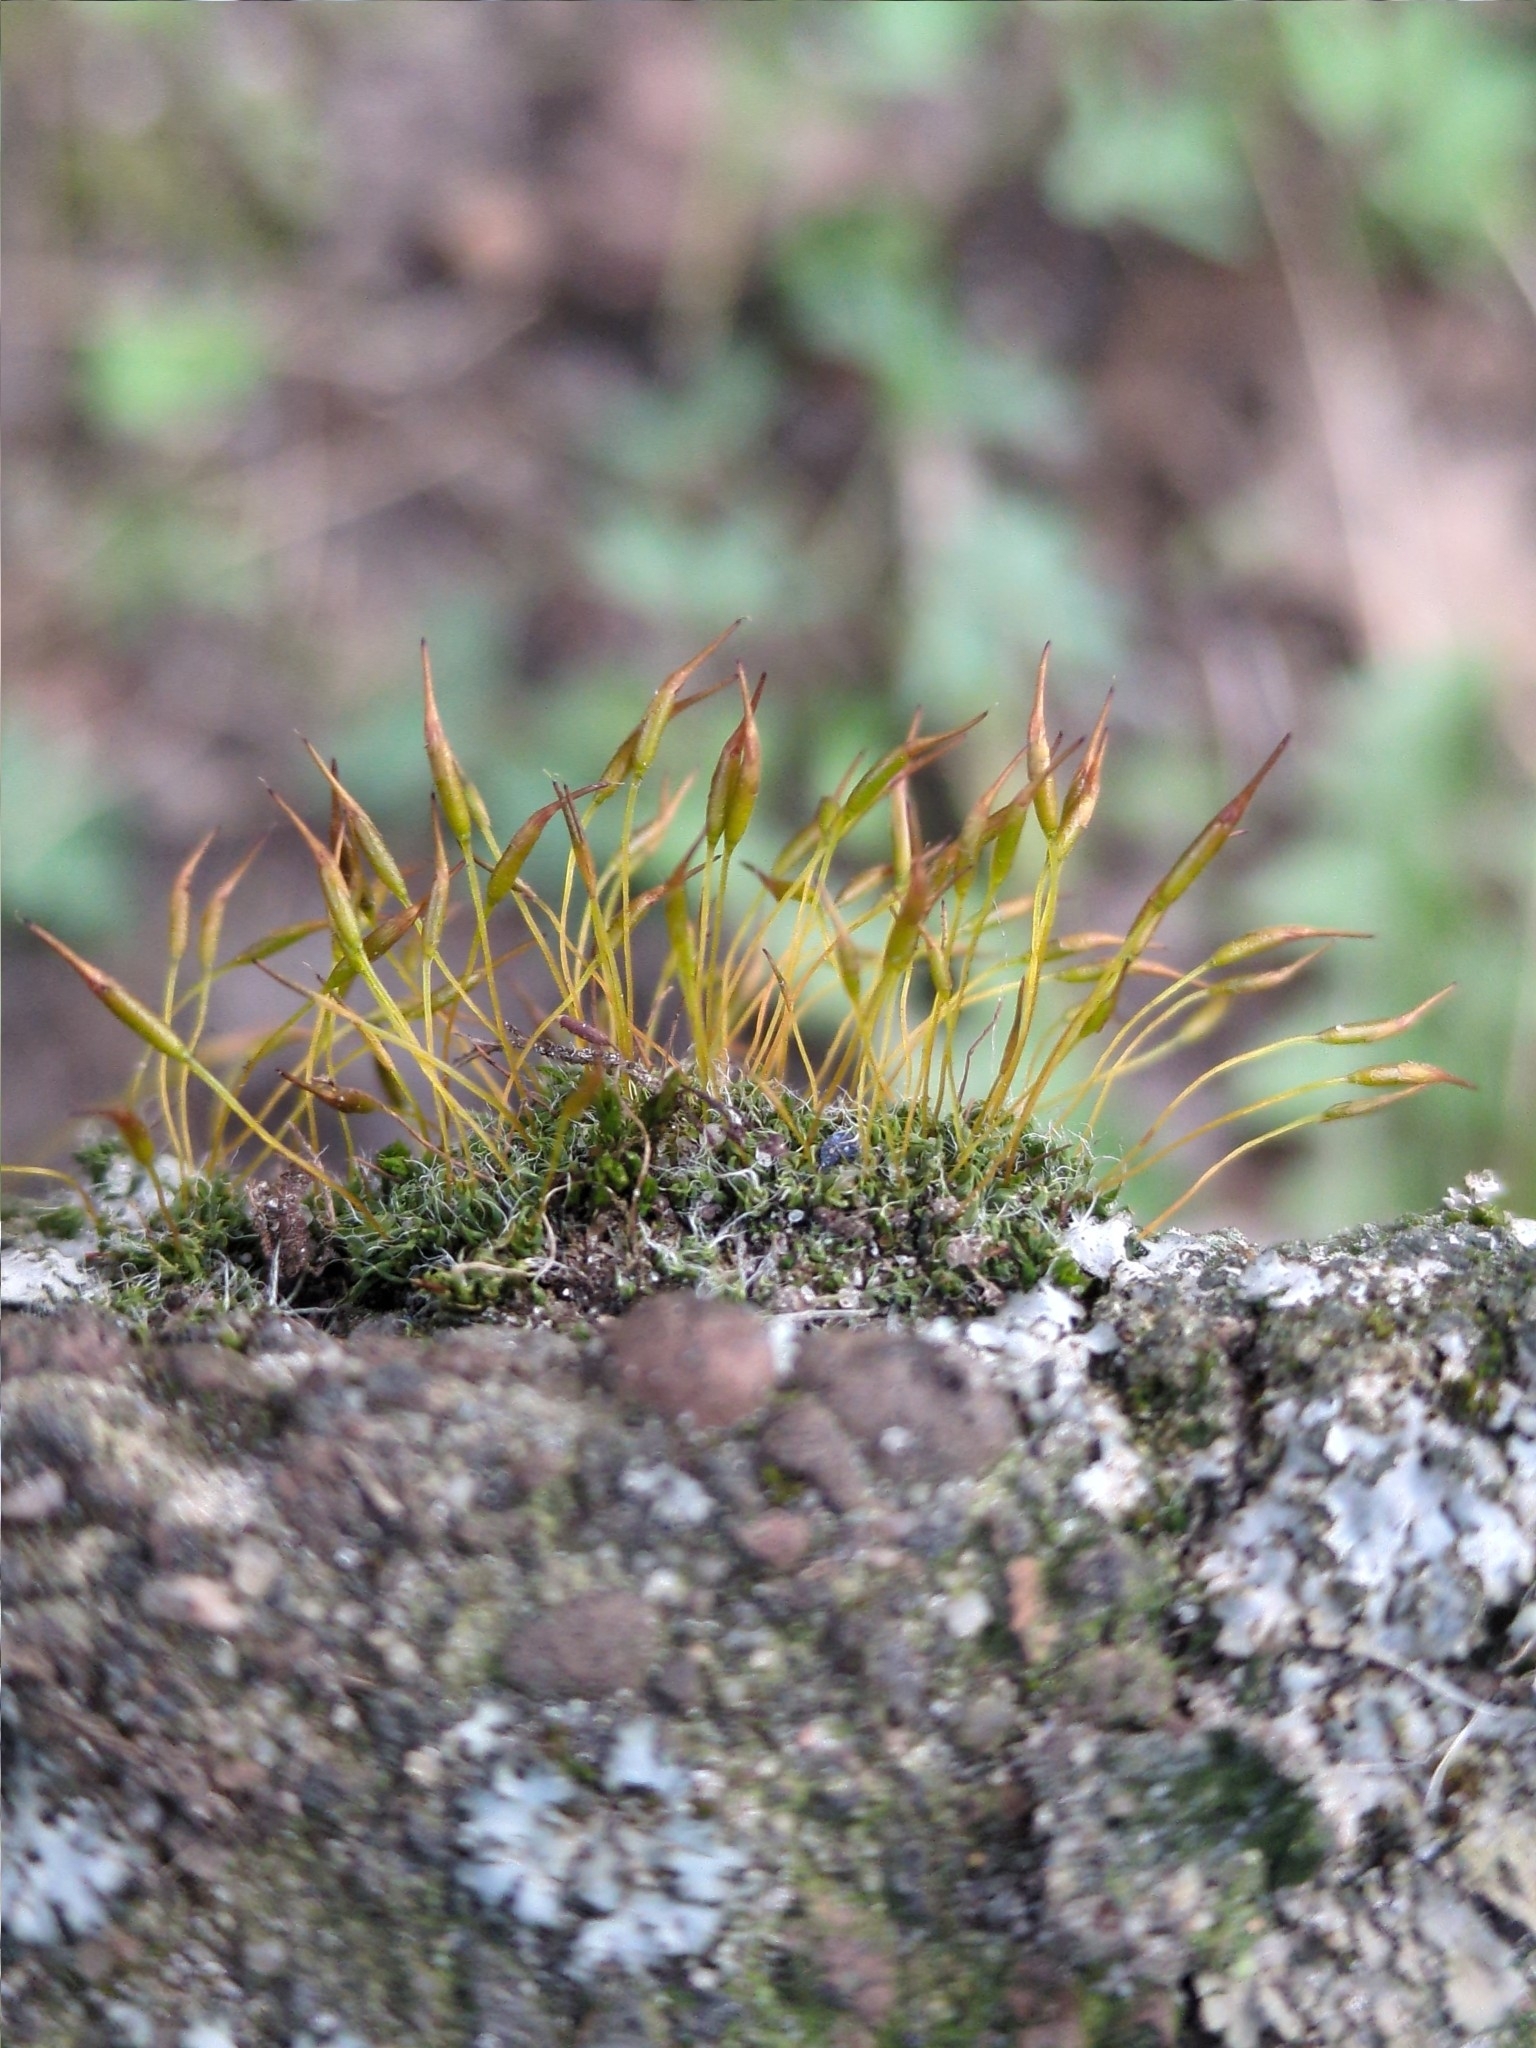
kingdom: Plantae
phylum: Bryophyta
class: Bryopsida
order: Pottiales
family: Pottiaceae
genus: Tortula
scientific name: Tortula muralis
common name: Wall screw-moss
